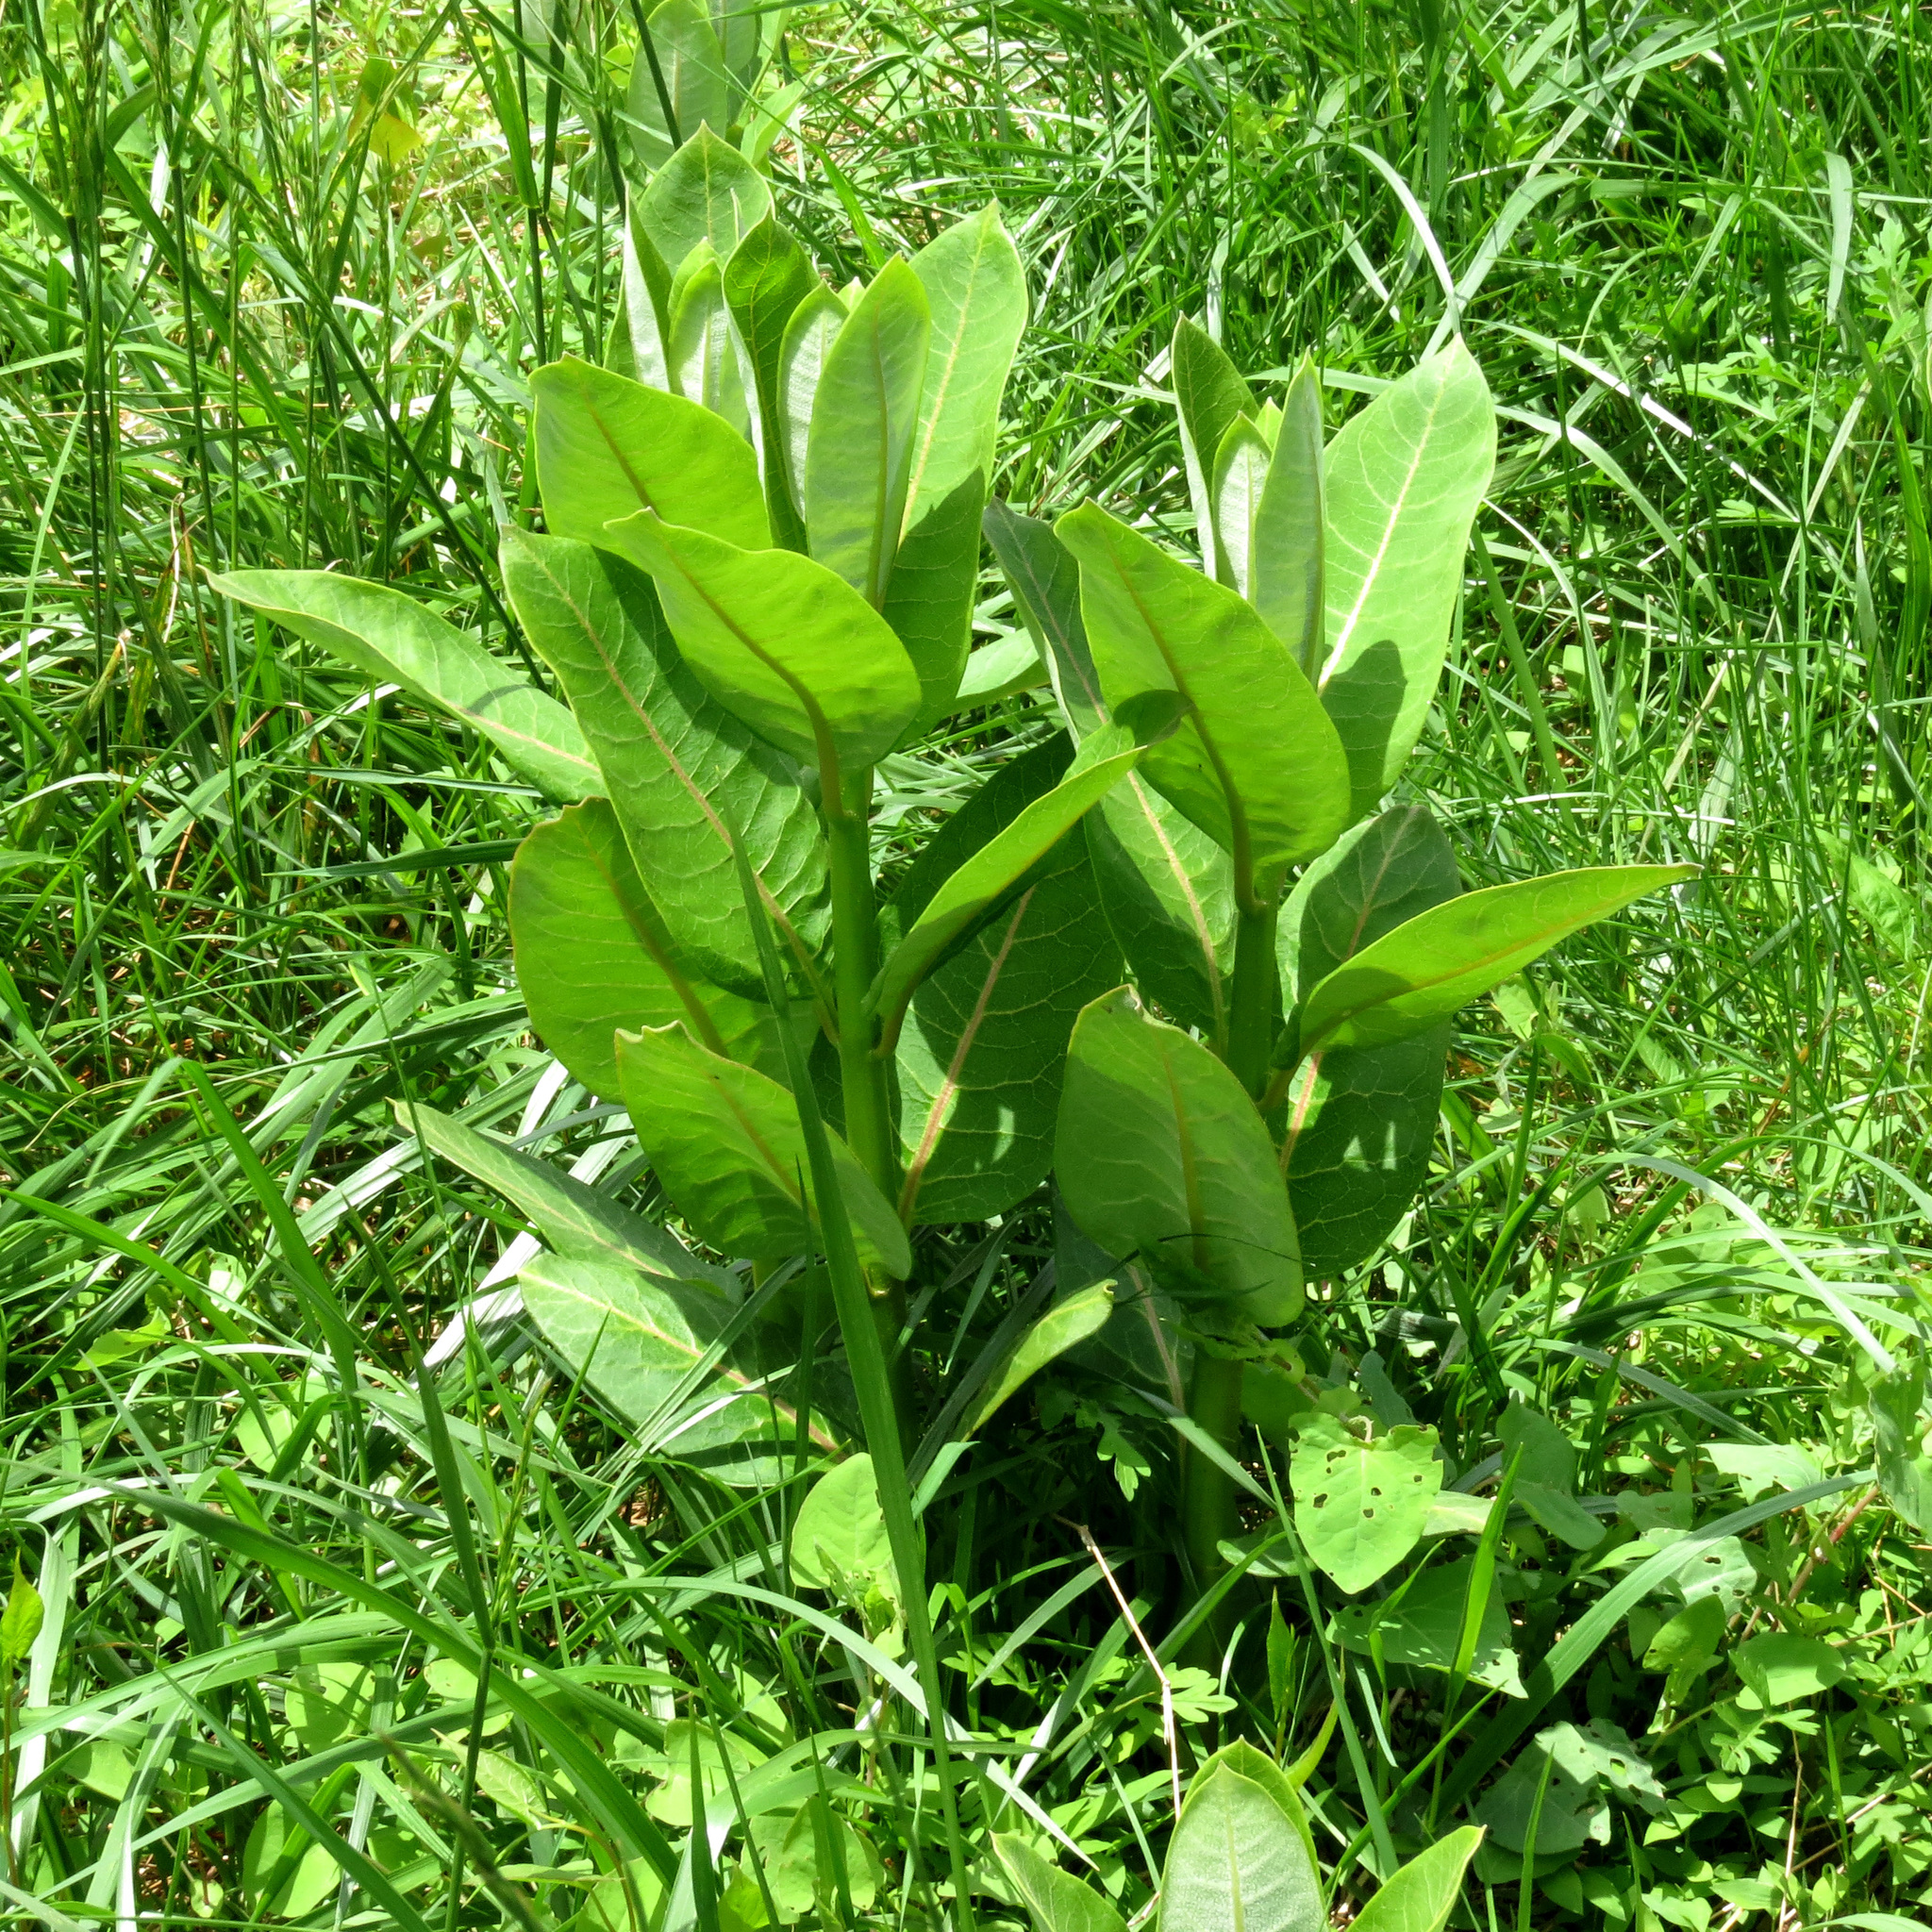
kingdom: Plantae
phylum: Tracheophyta
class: Magnoliopsida
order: Gentianales
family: Apocynaceae
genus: Asclepias
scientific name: Asclepias syriaca
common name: Common milkweed
